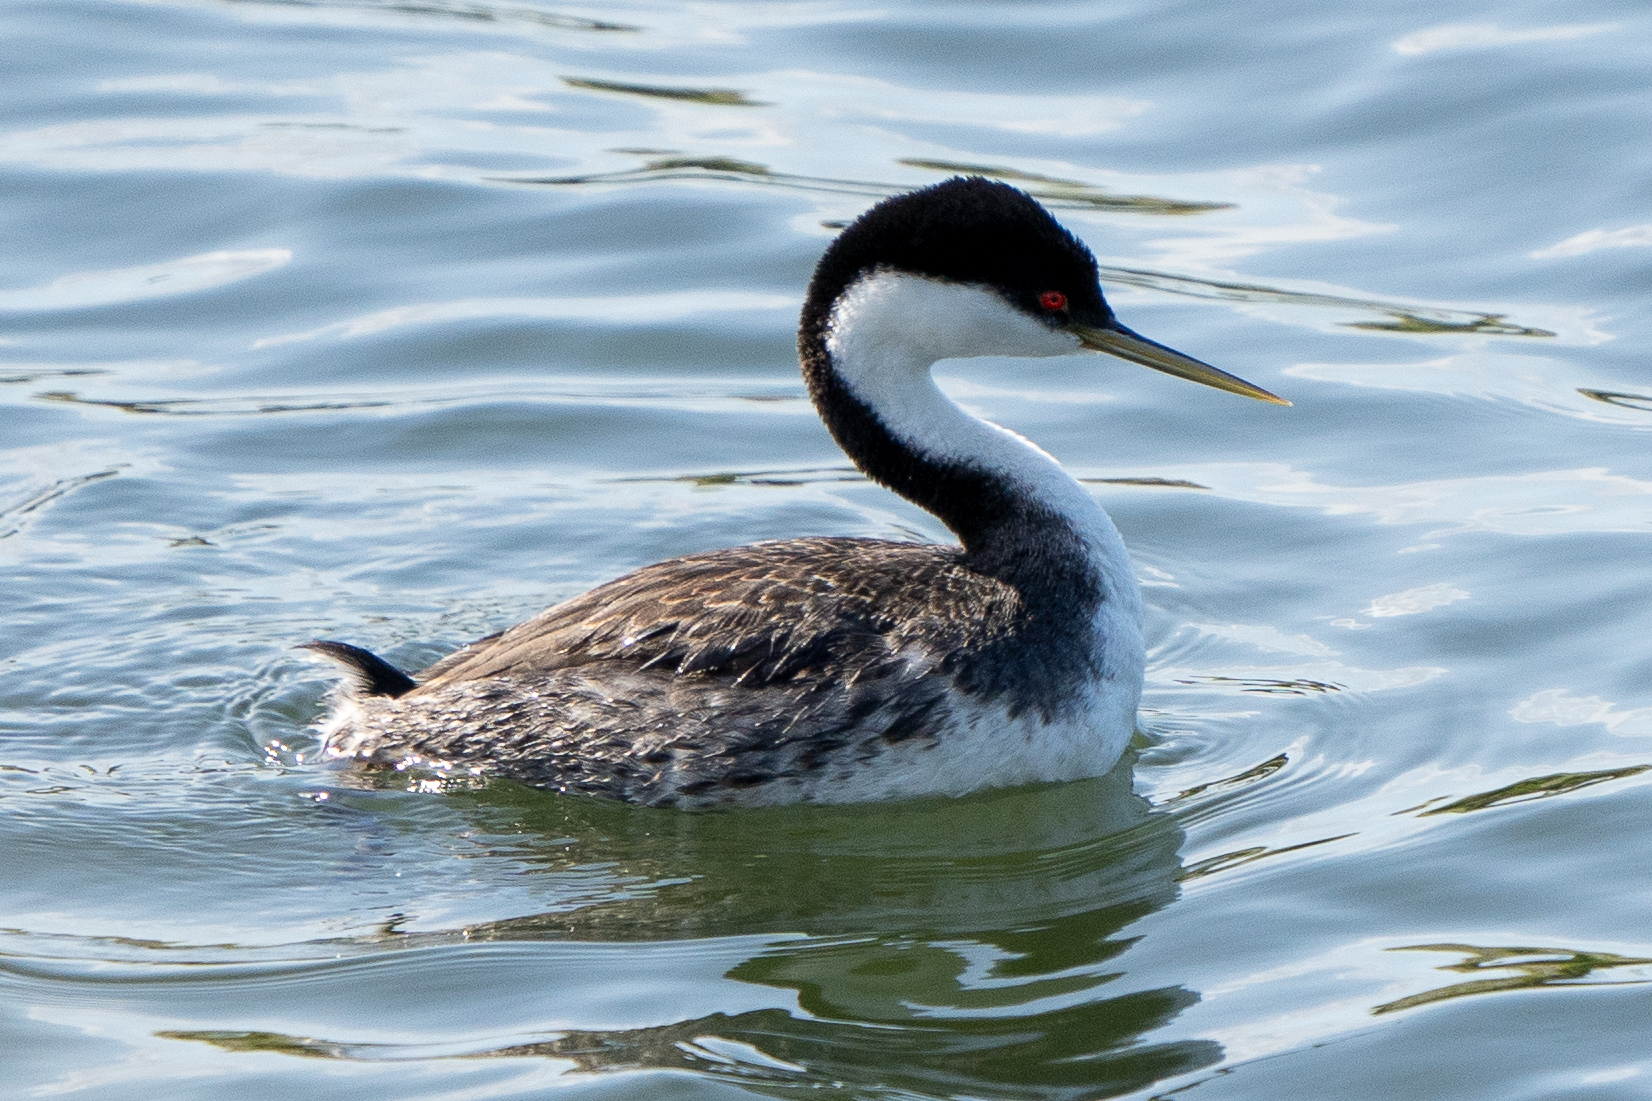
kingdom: Animalia
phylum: Chordata
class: Aves
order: Podicipediformes
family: Podicipedidae
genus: Aechmophorus
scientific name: Aechmophorus occidentalis
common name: Western grebe
